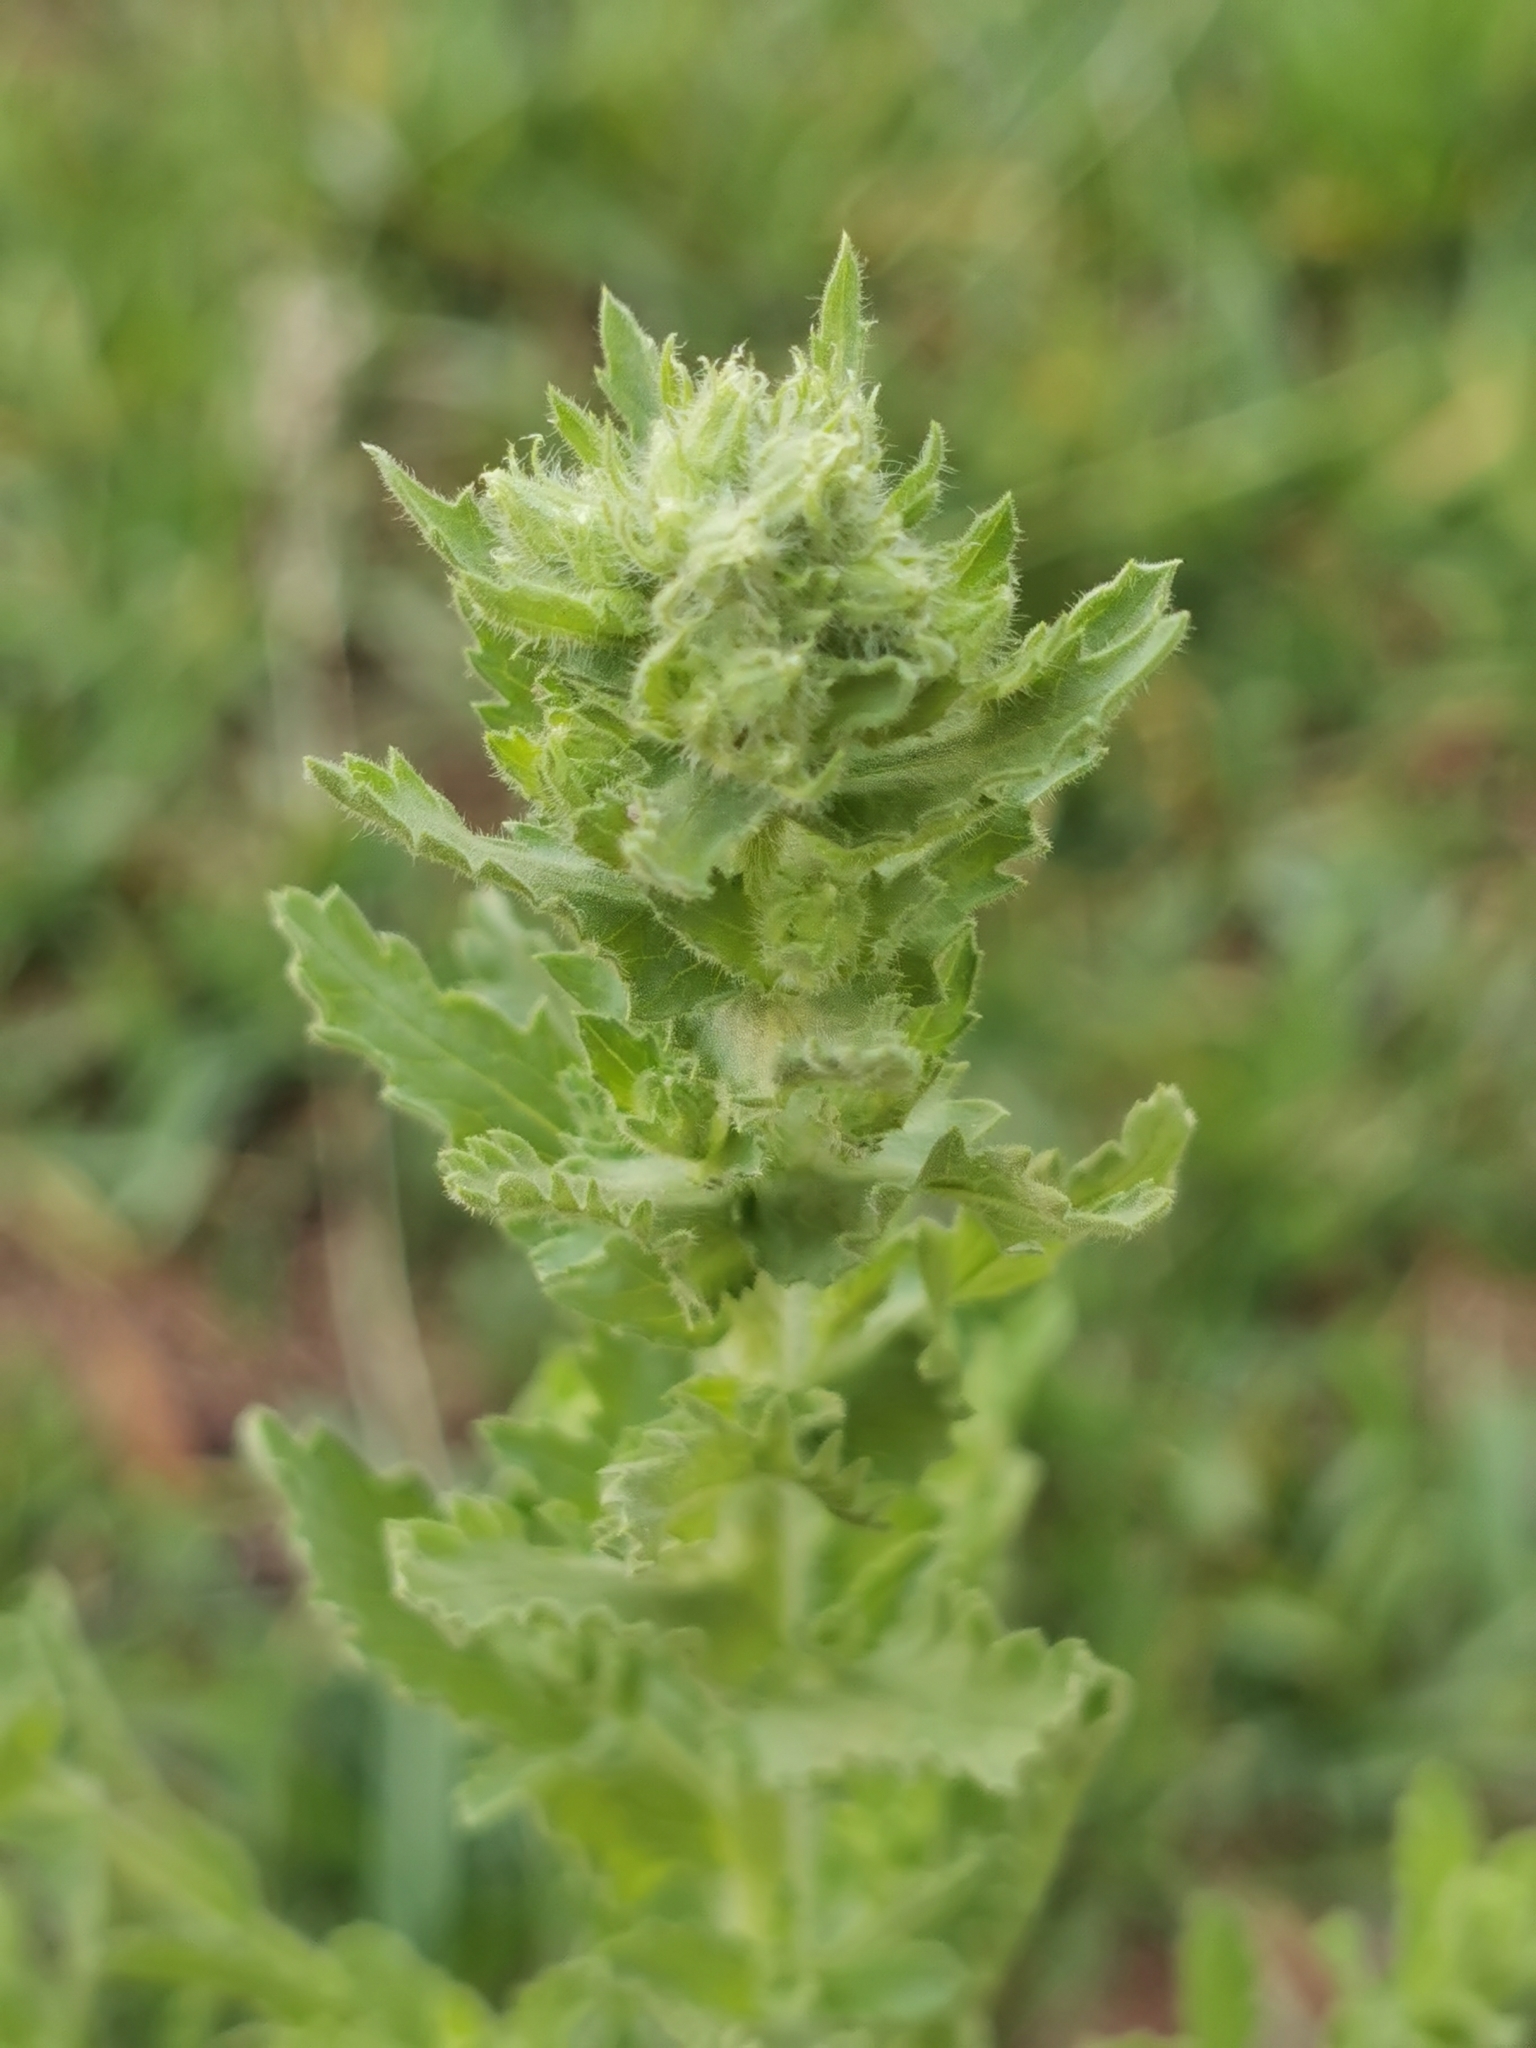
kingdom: Plantae
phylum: Tracheophyta
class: Magnoliopsida
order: Asterales
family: Asteraceae
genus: Laennecia
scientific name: Laennecia coulteri
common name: Coulter's woolwort
